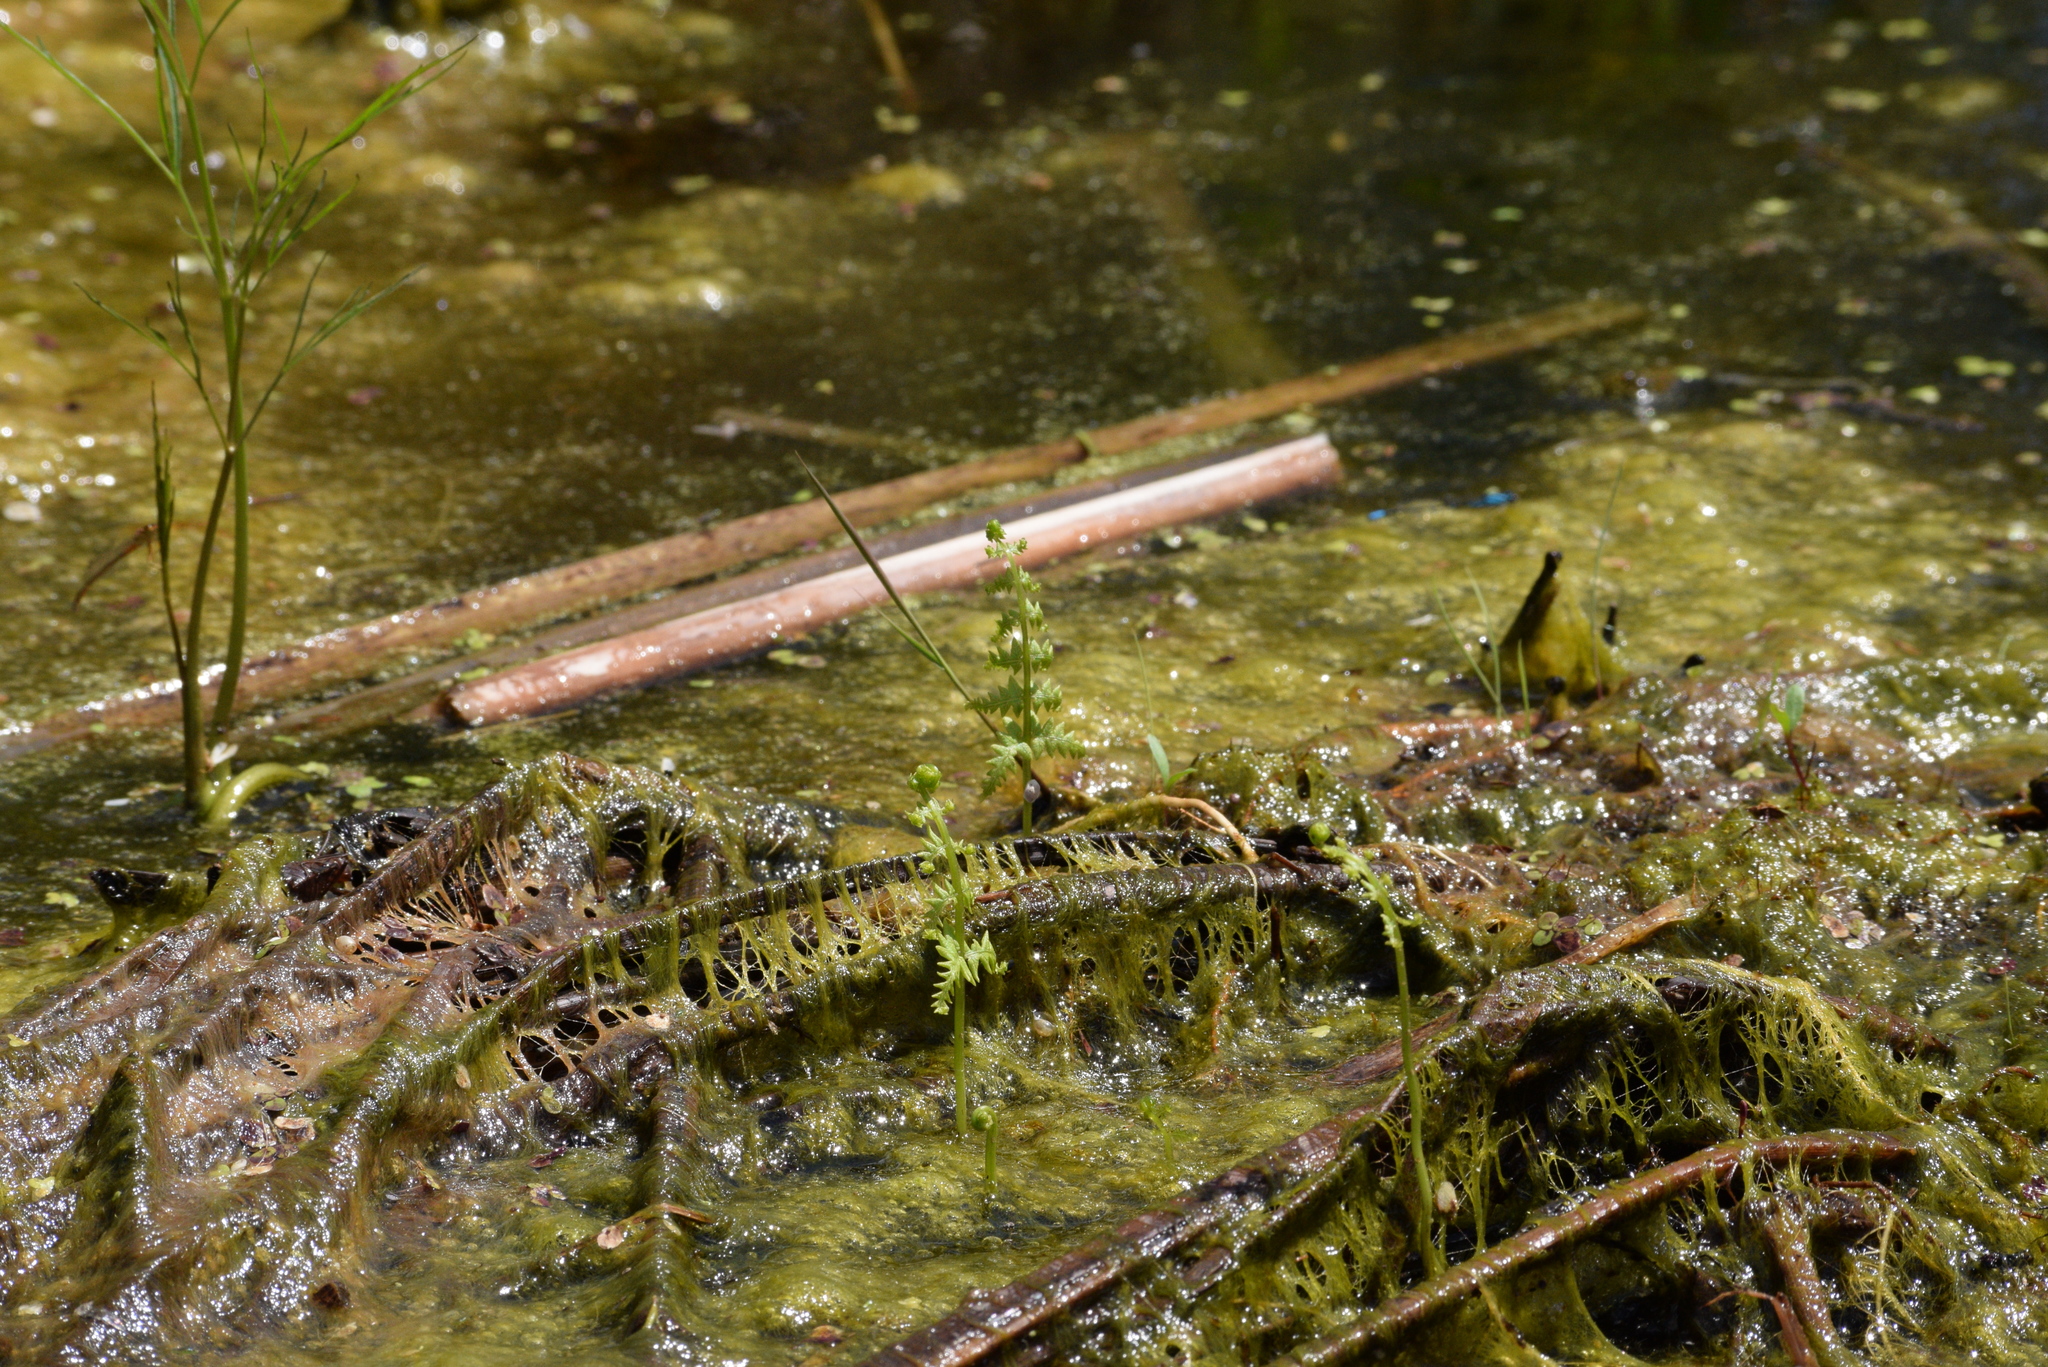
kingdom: Plantae
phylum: Tracheophyta
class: Polypodiopsida
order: Polypodiales
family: Thelypteridaceae
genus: Thelypteris
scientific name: Thelypteris palustris
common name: Marsh fern
